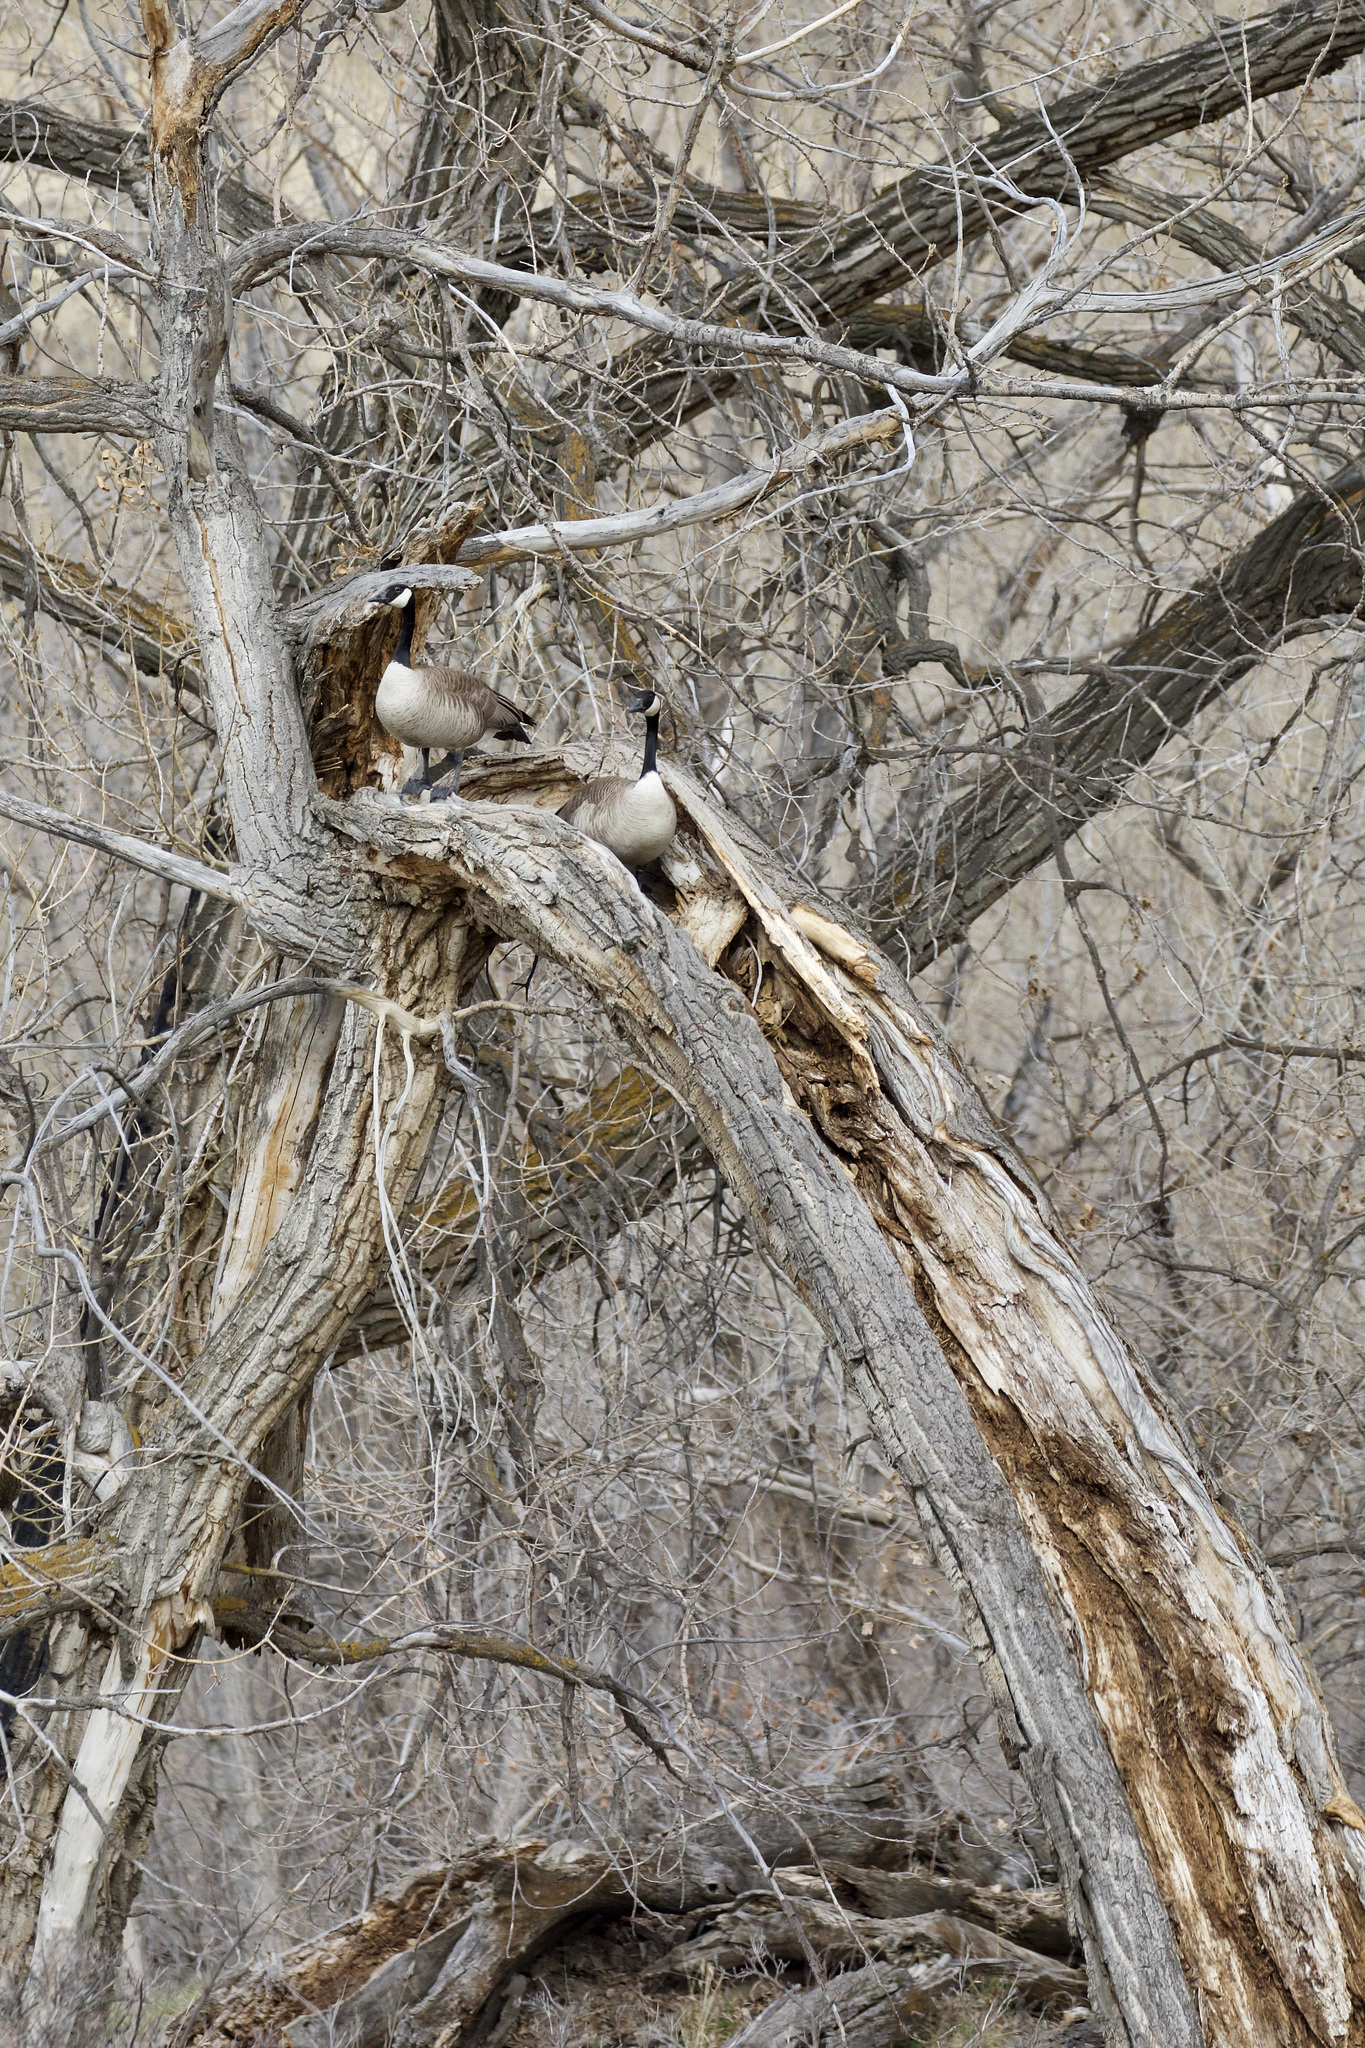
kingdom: Animalia
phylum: Chordata
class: Aves
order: Anseriformes
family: Anatidae
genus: Branta
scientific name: Branta canadensis
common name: Canada goose
